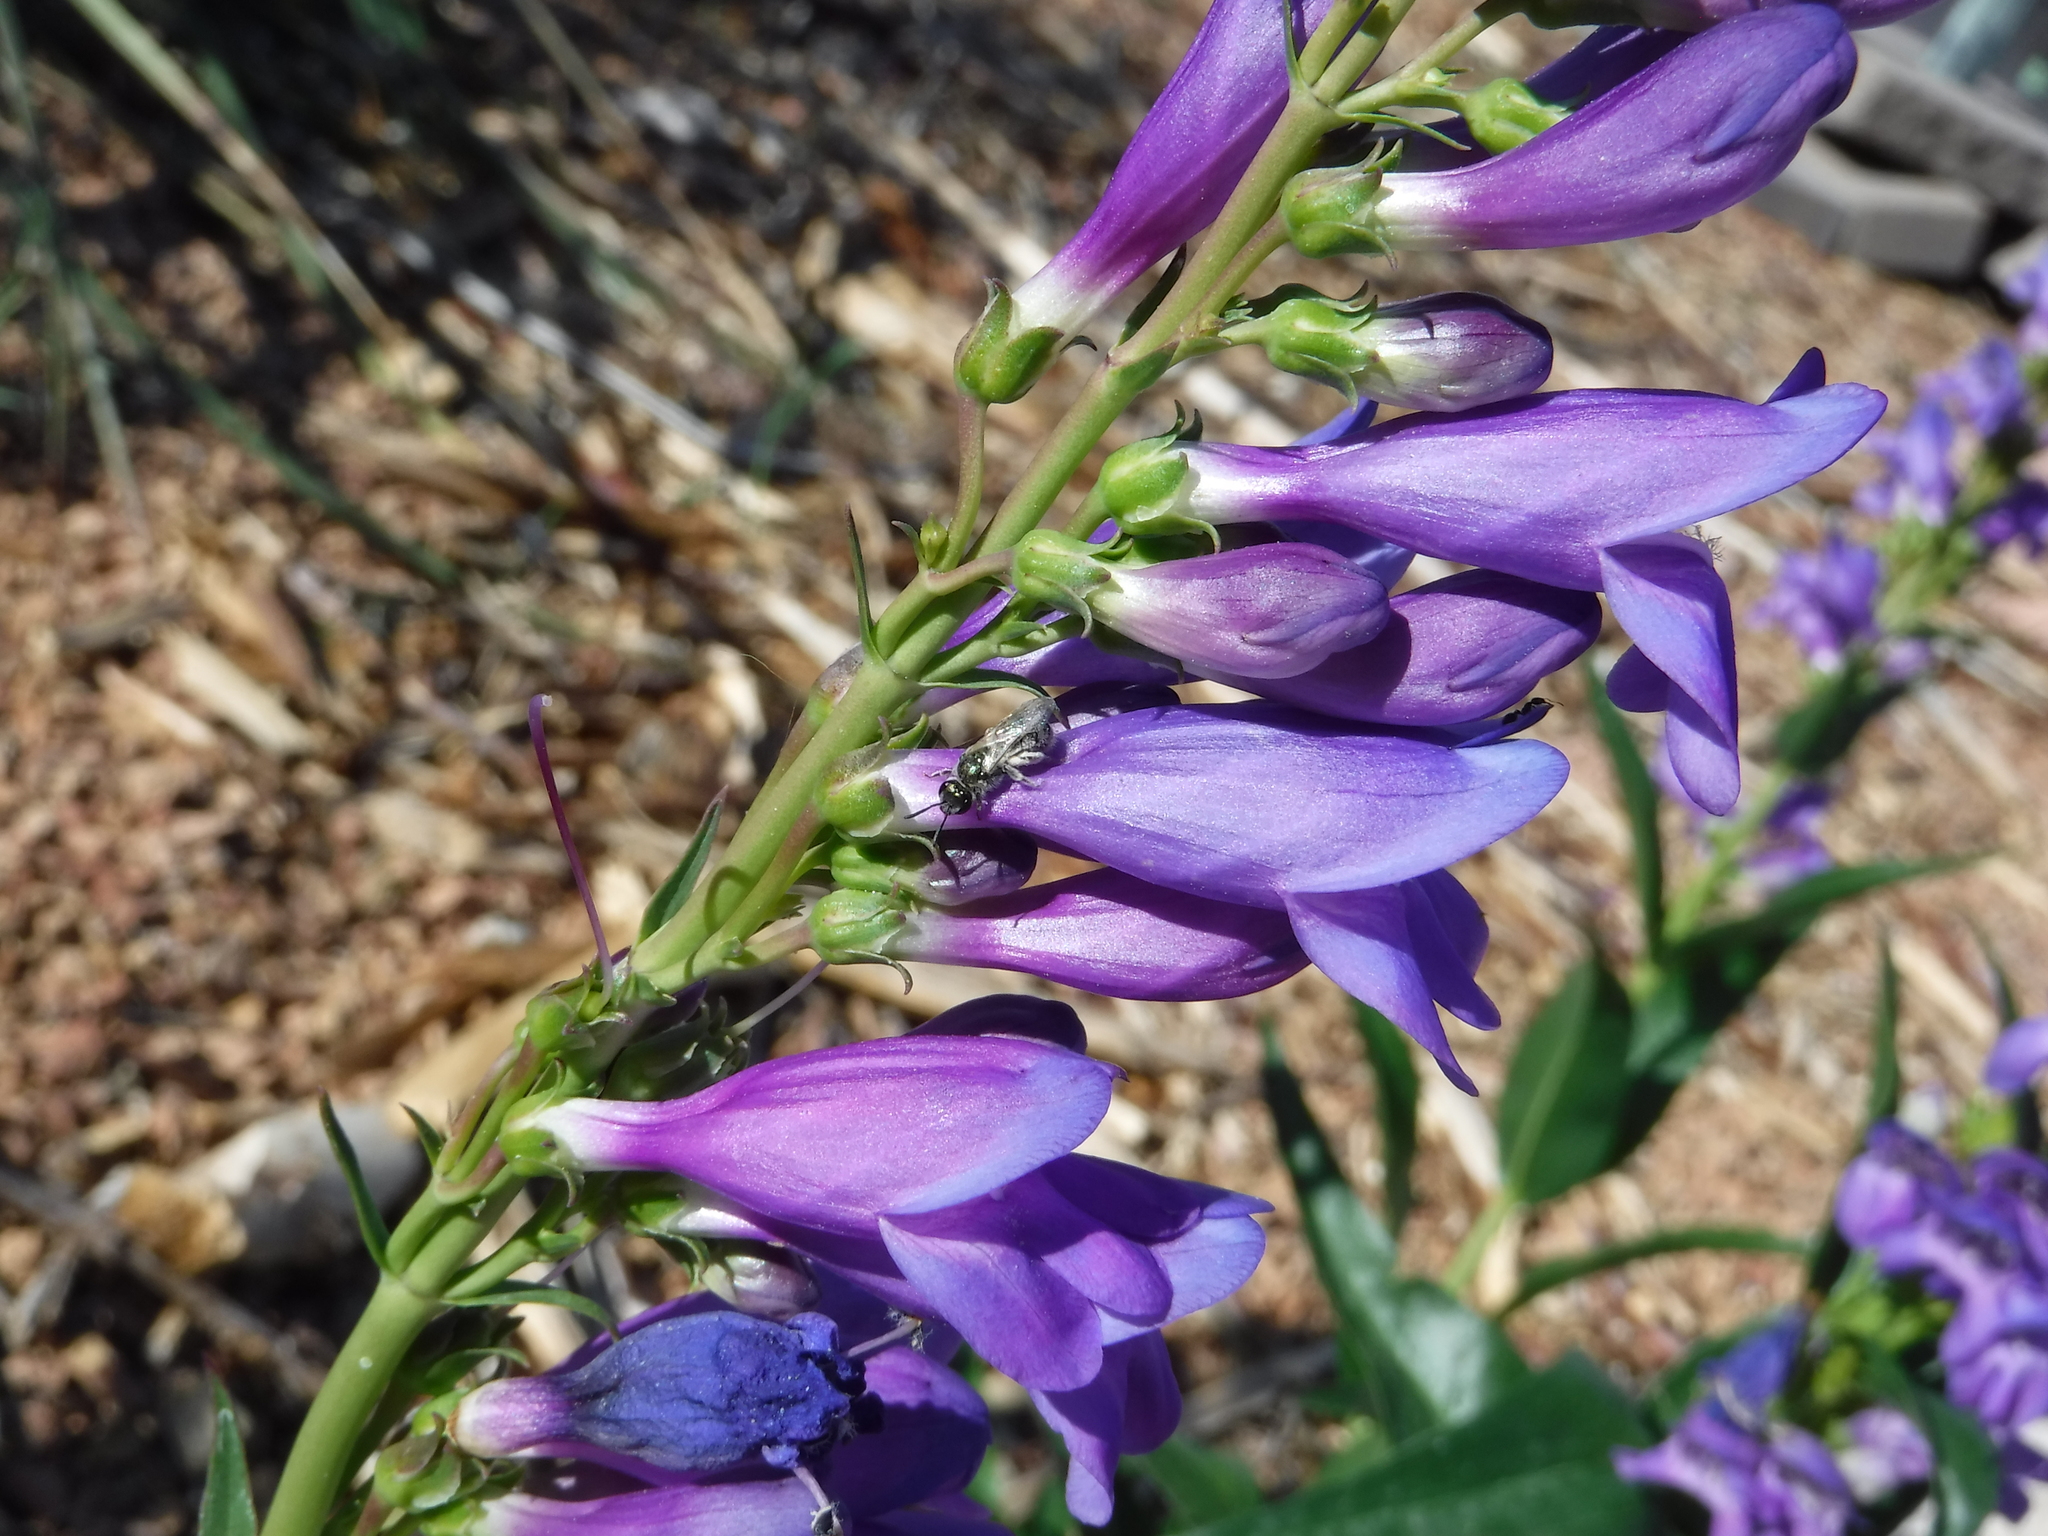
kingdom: Animalia
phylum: Arthropoda
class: Insecta
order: Hymenoptera
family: Halictidae
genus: Dialictus
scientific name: Dialictus
